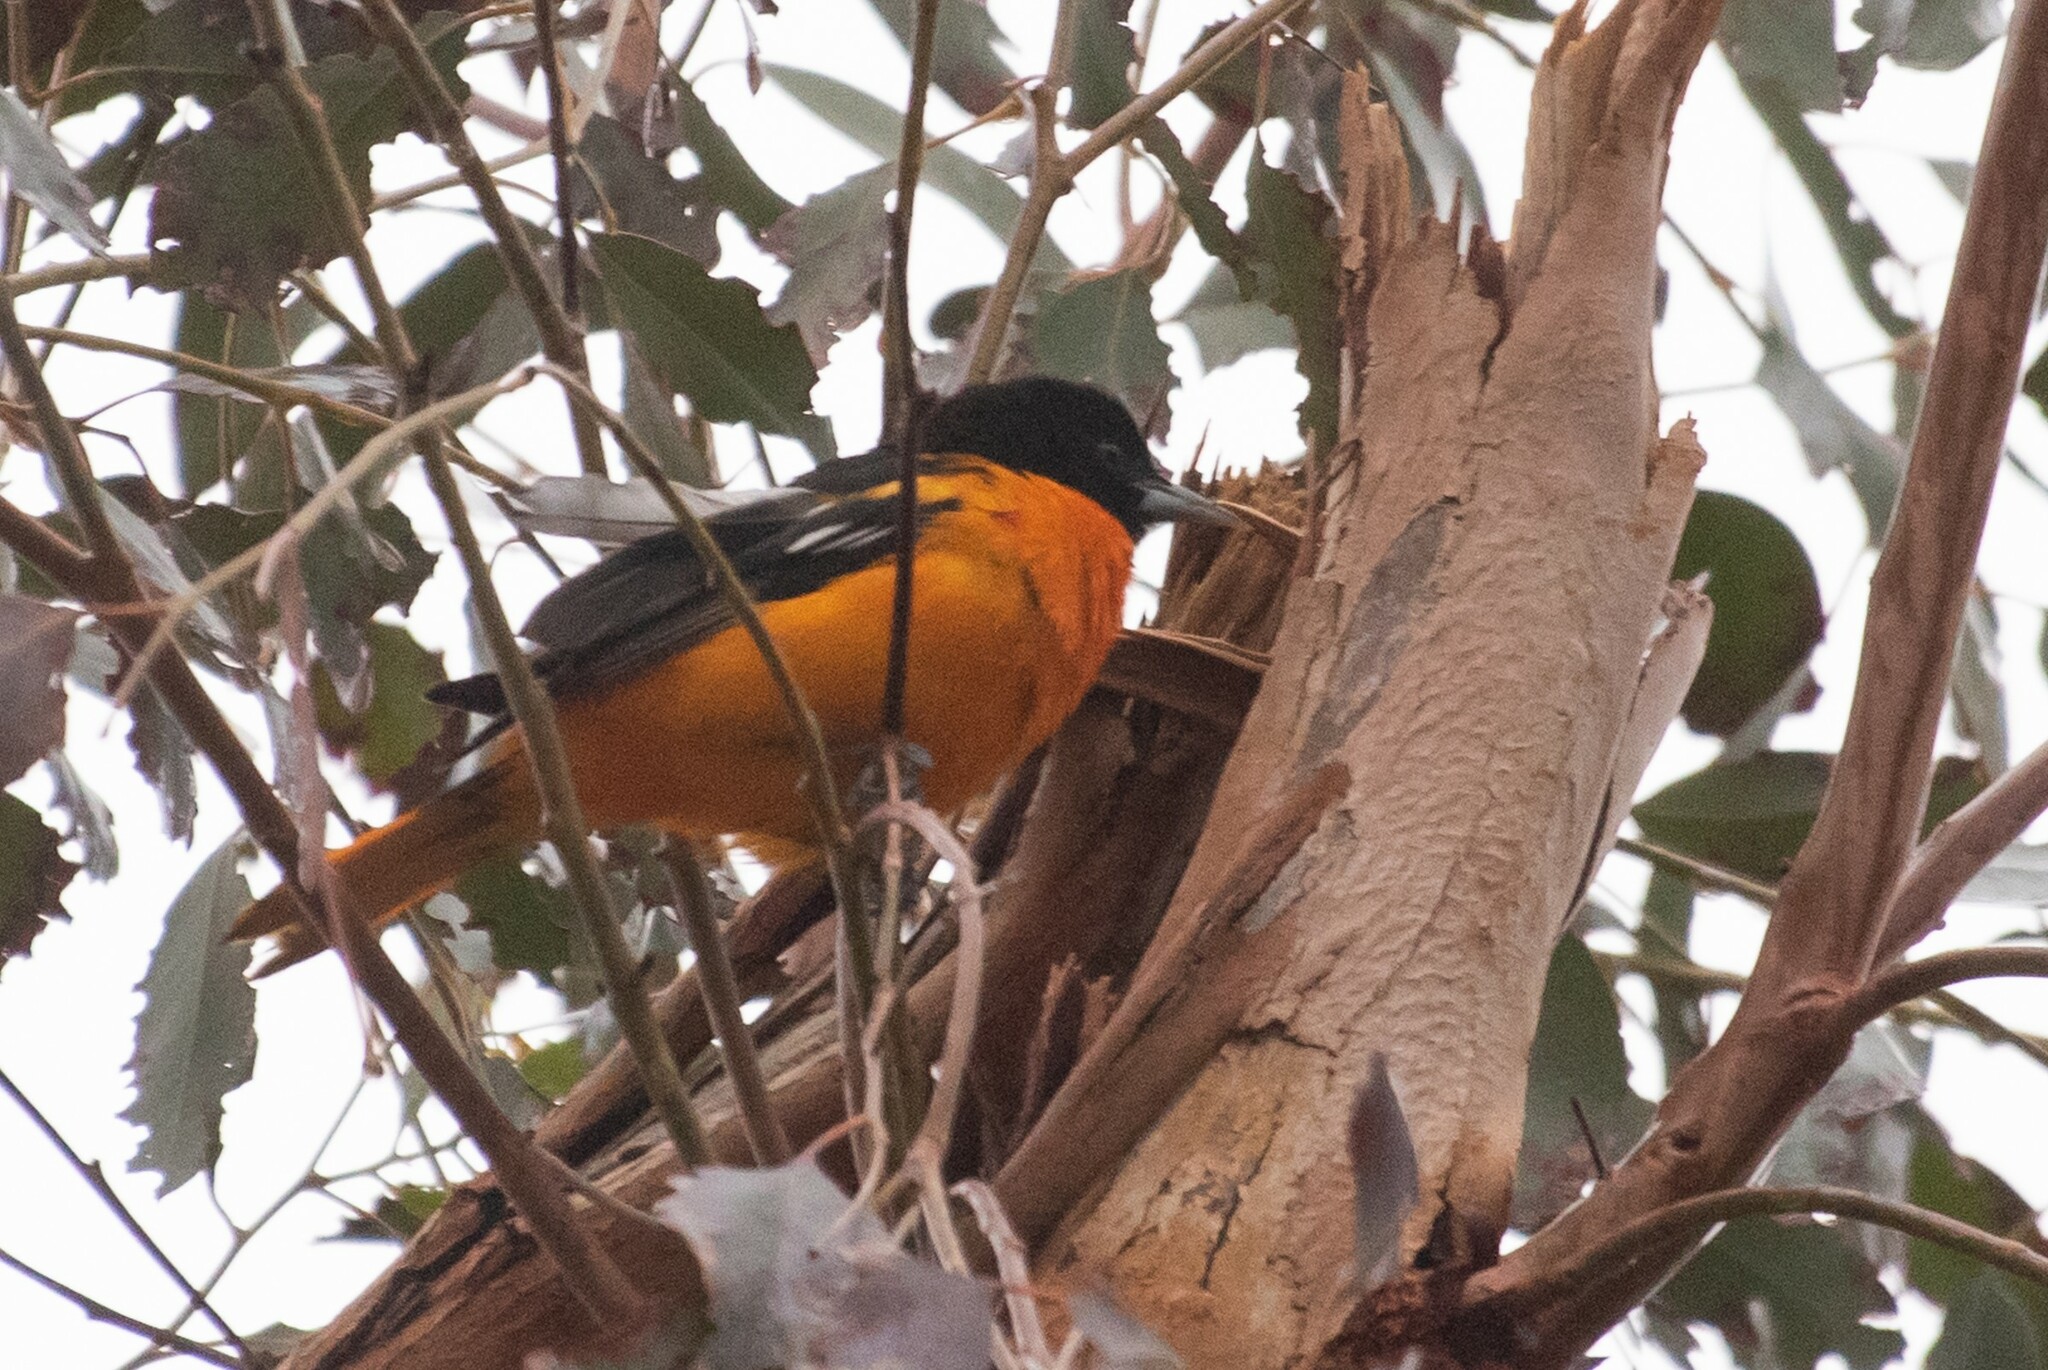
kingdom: Animalia
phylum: Chordata
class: Aves
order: Passeriformes
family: Icteridae
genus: Icterus
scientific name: Icterus galbula
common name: Baltimore oriole
